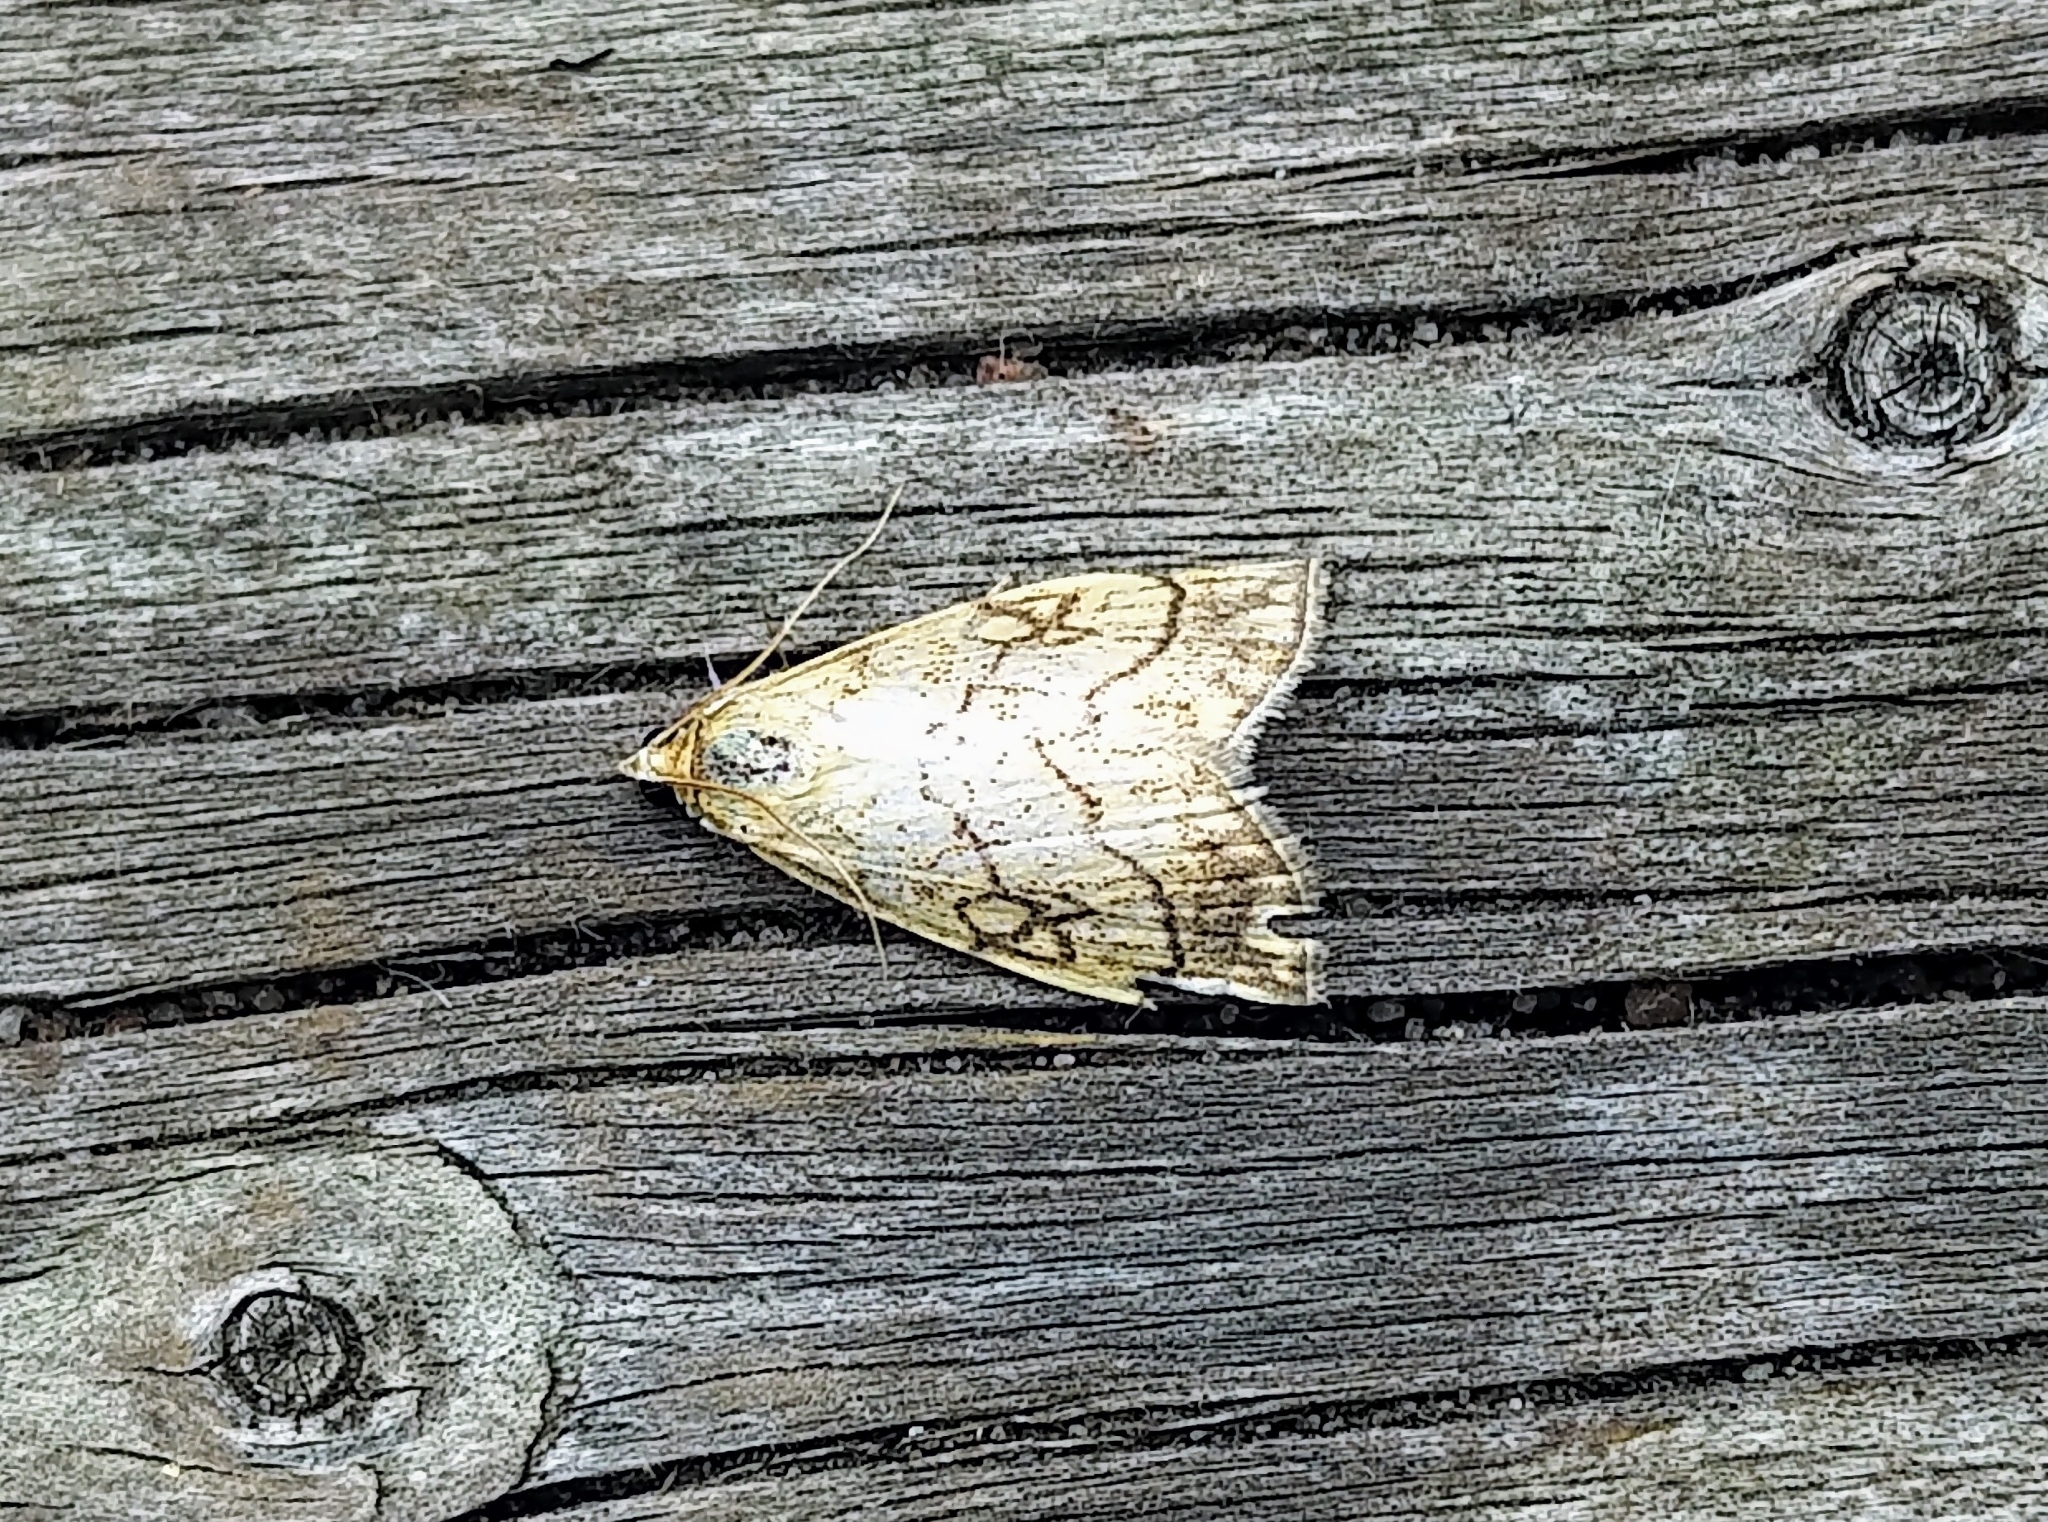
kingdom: Animalia
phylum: Arthropoda
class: Insecta
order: Lepidoptera
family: Crambidae
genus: Evergestis
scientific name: Evergestis pallidata
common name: Chequered pearl
